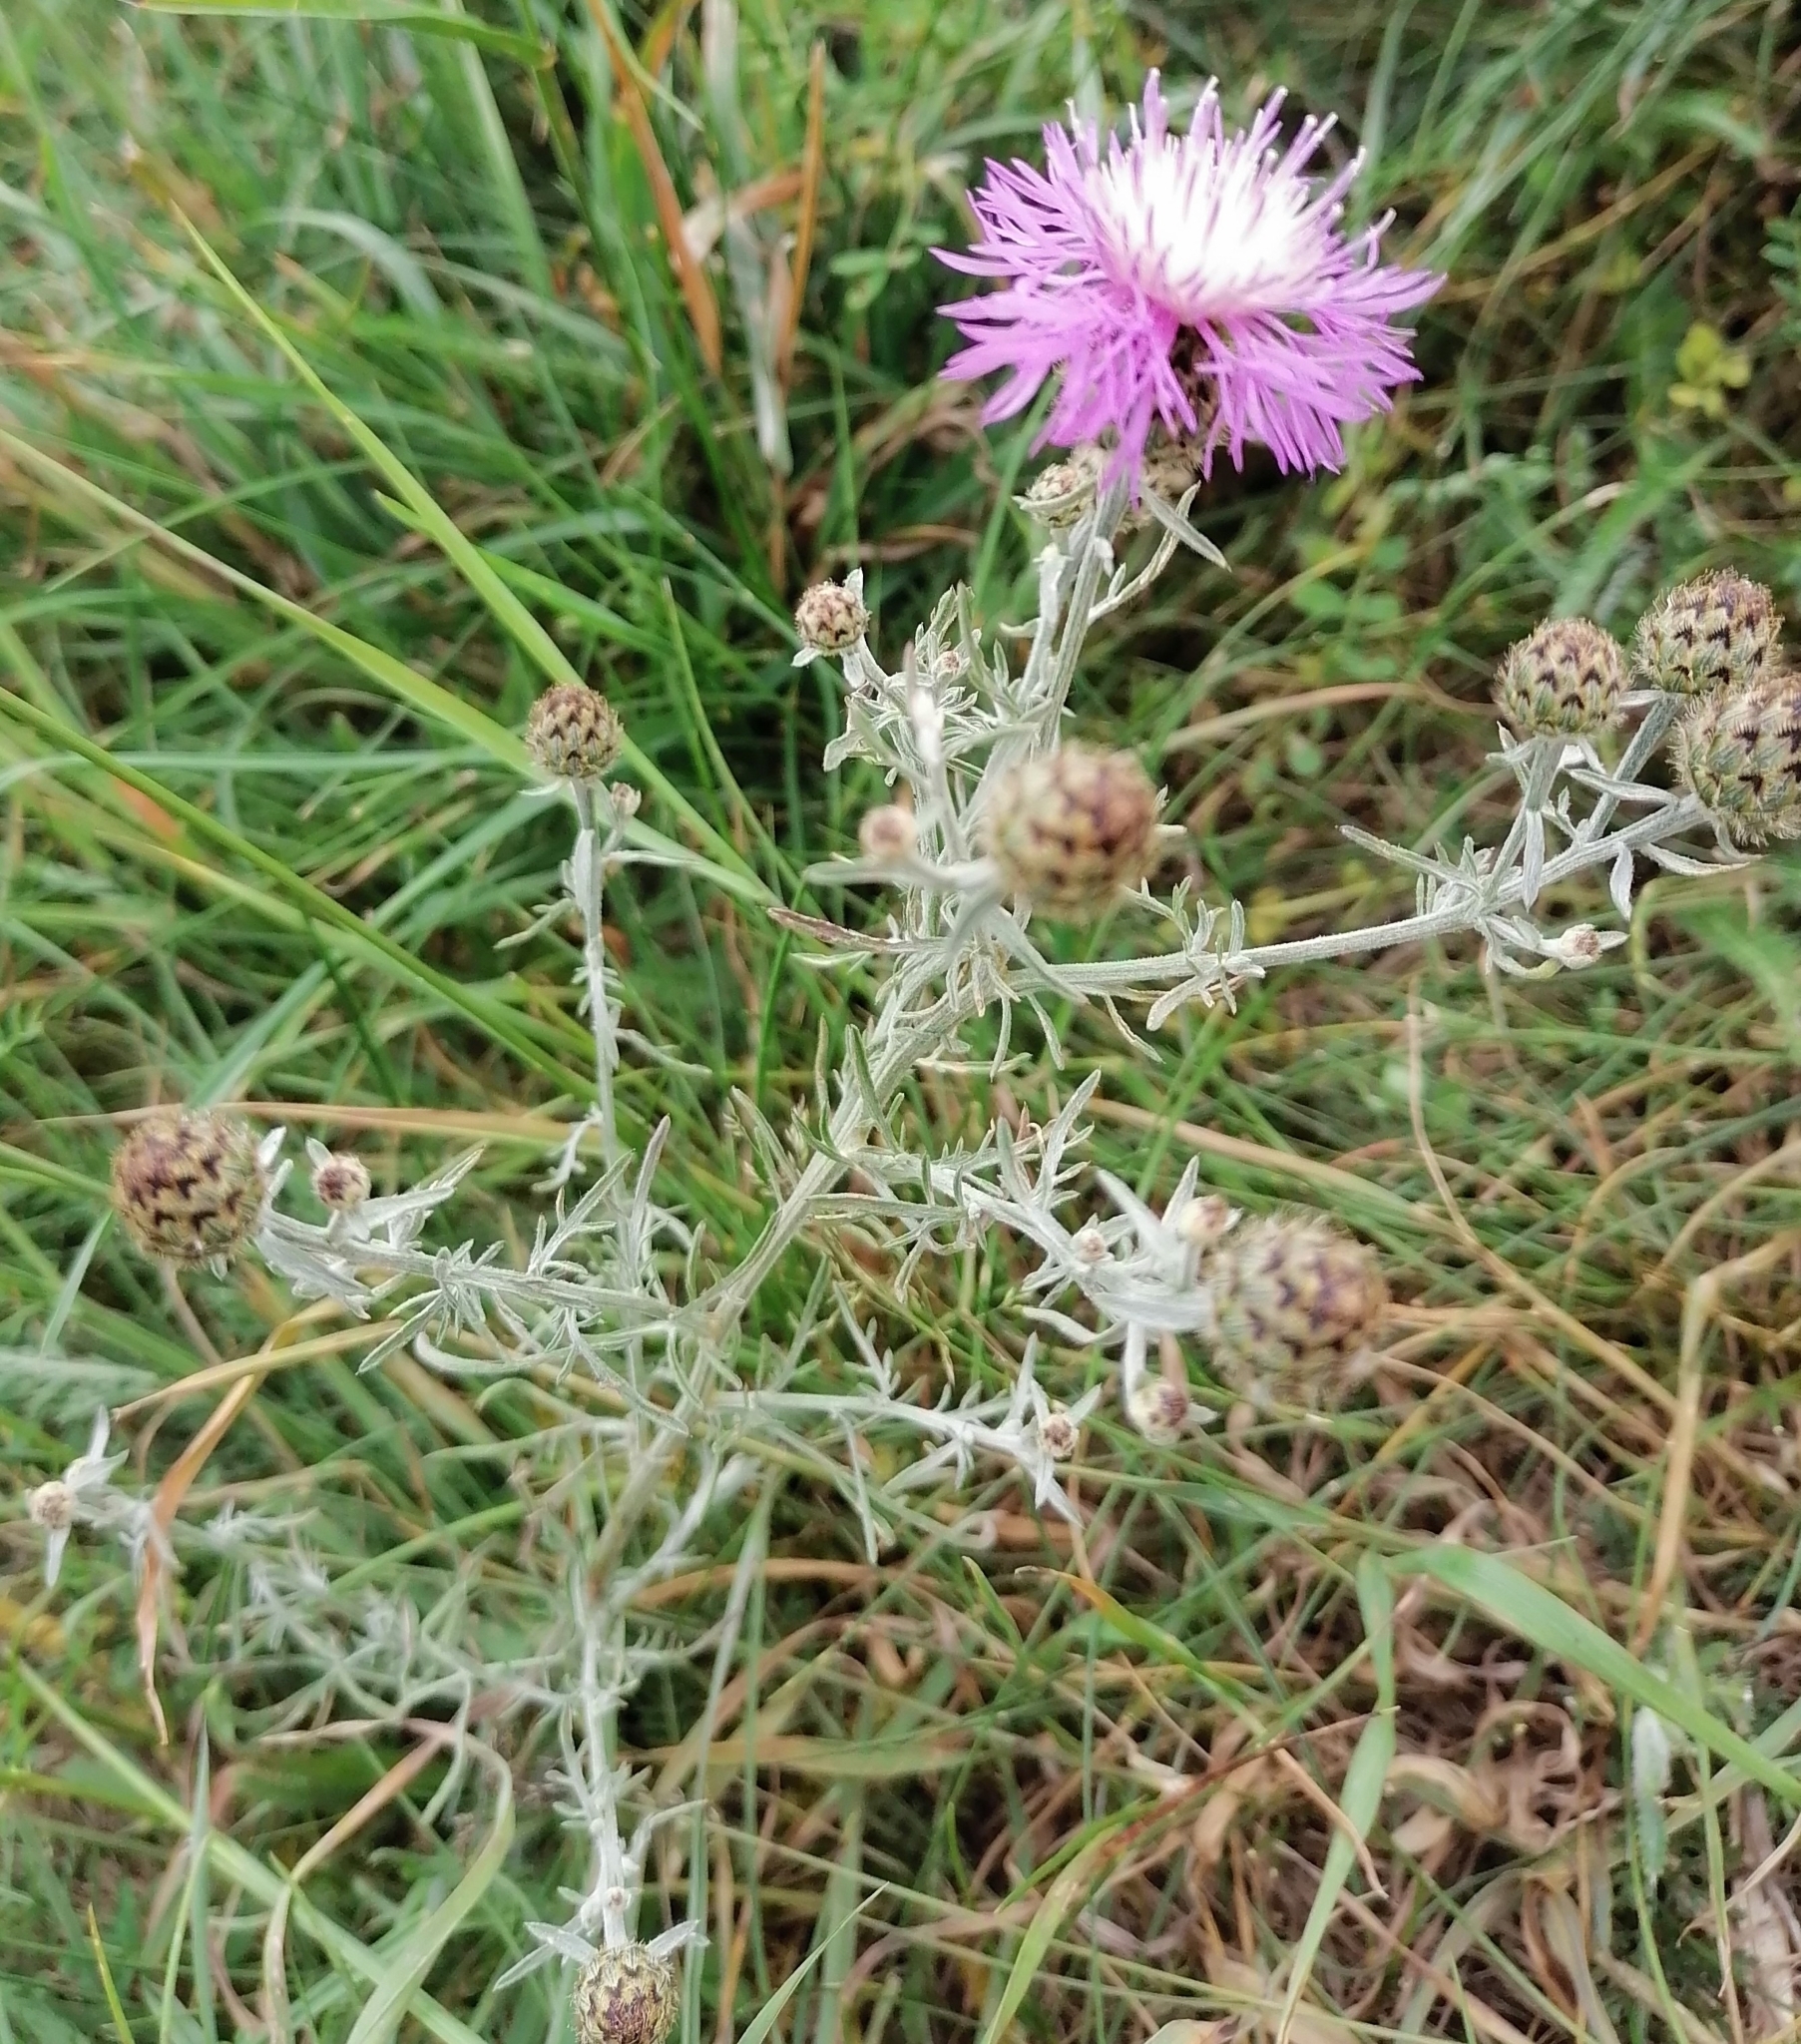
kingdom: Plantae
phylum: Tracheophyta
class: Magnoliopsida
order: Asterales
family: Asteraceae
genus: Centaurea
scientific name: Centaurea stoebe
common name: Spotted knapweed
